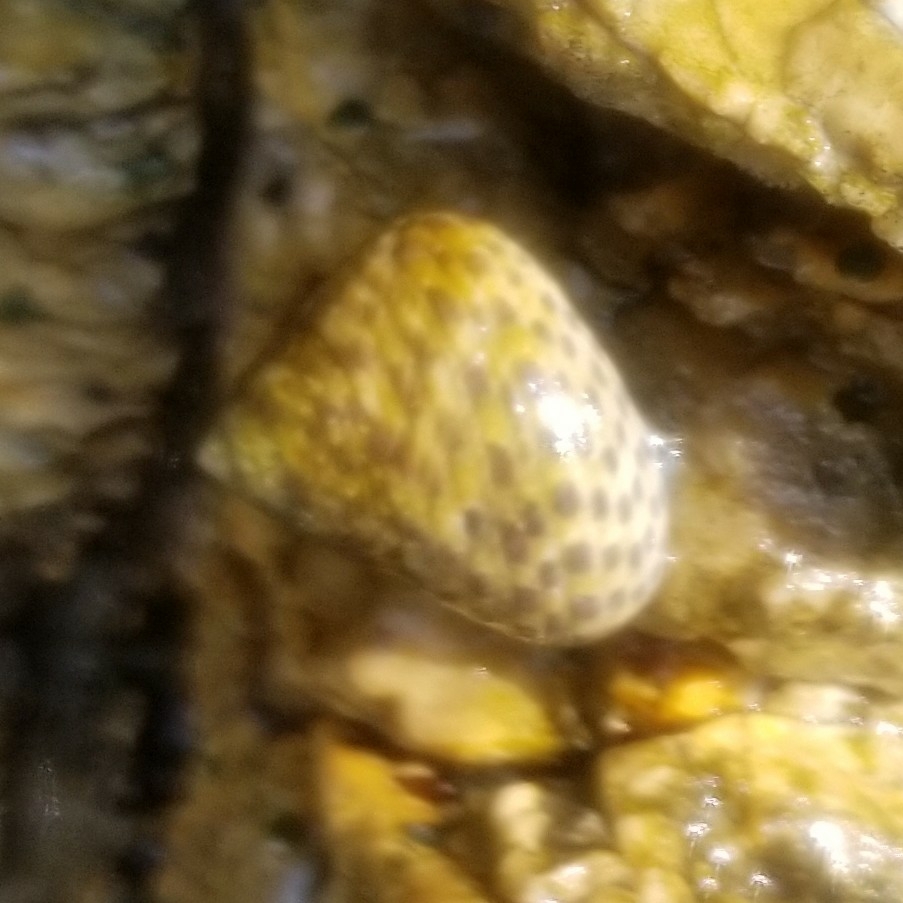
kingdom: Animalia
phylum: Mollusca
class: Gastropoda
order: Trochida
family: Trochidae
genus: Phorcus
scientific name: Phorcus turbinatus
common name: Turbinate monodont
